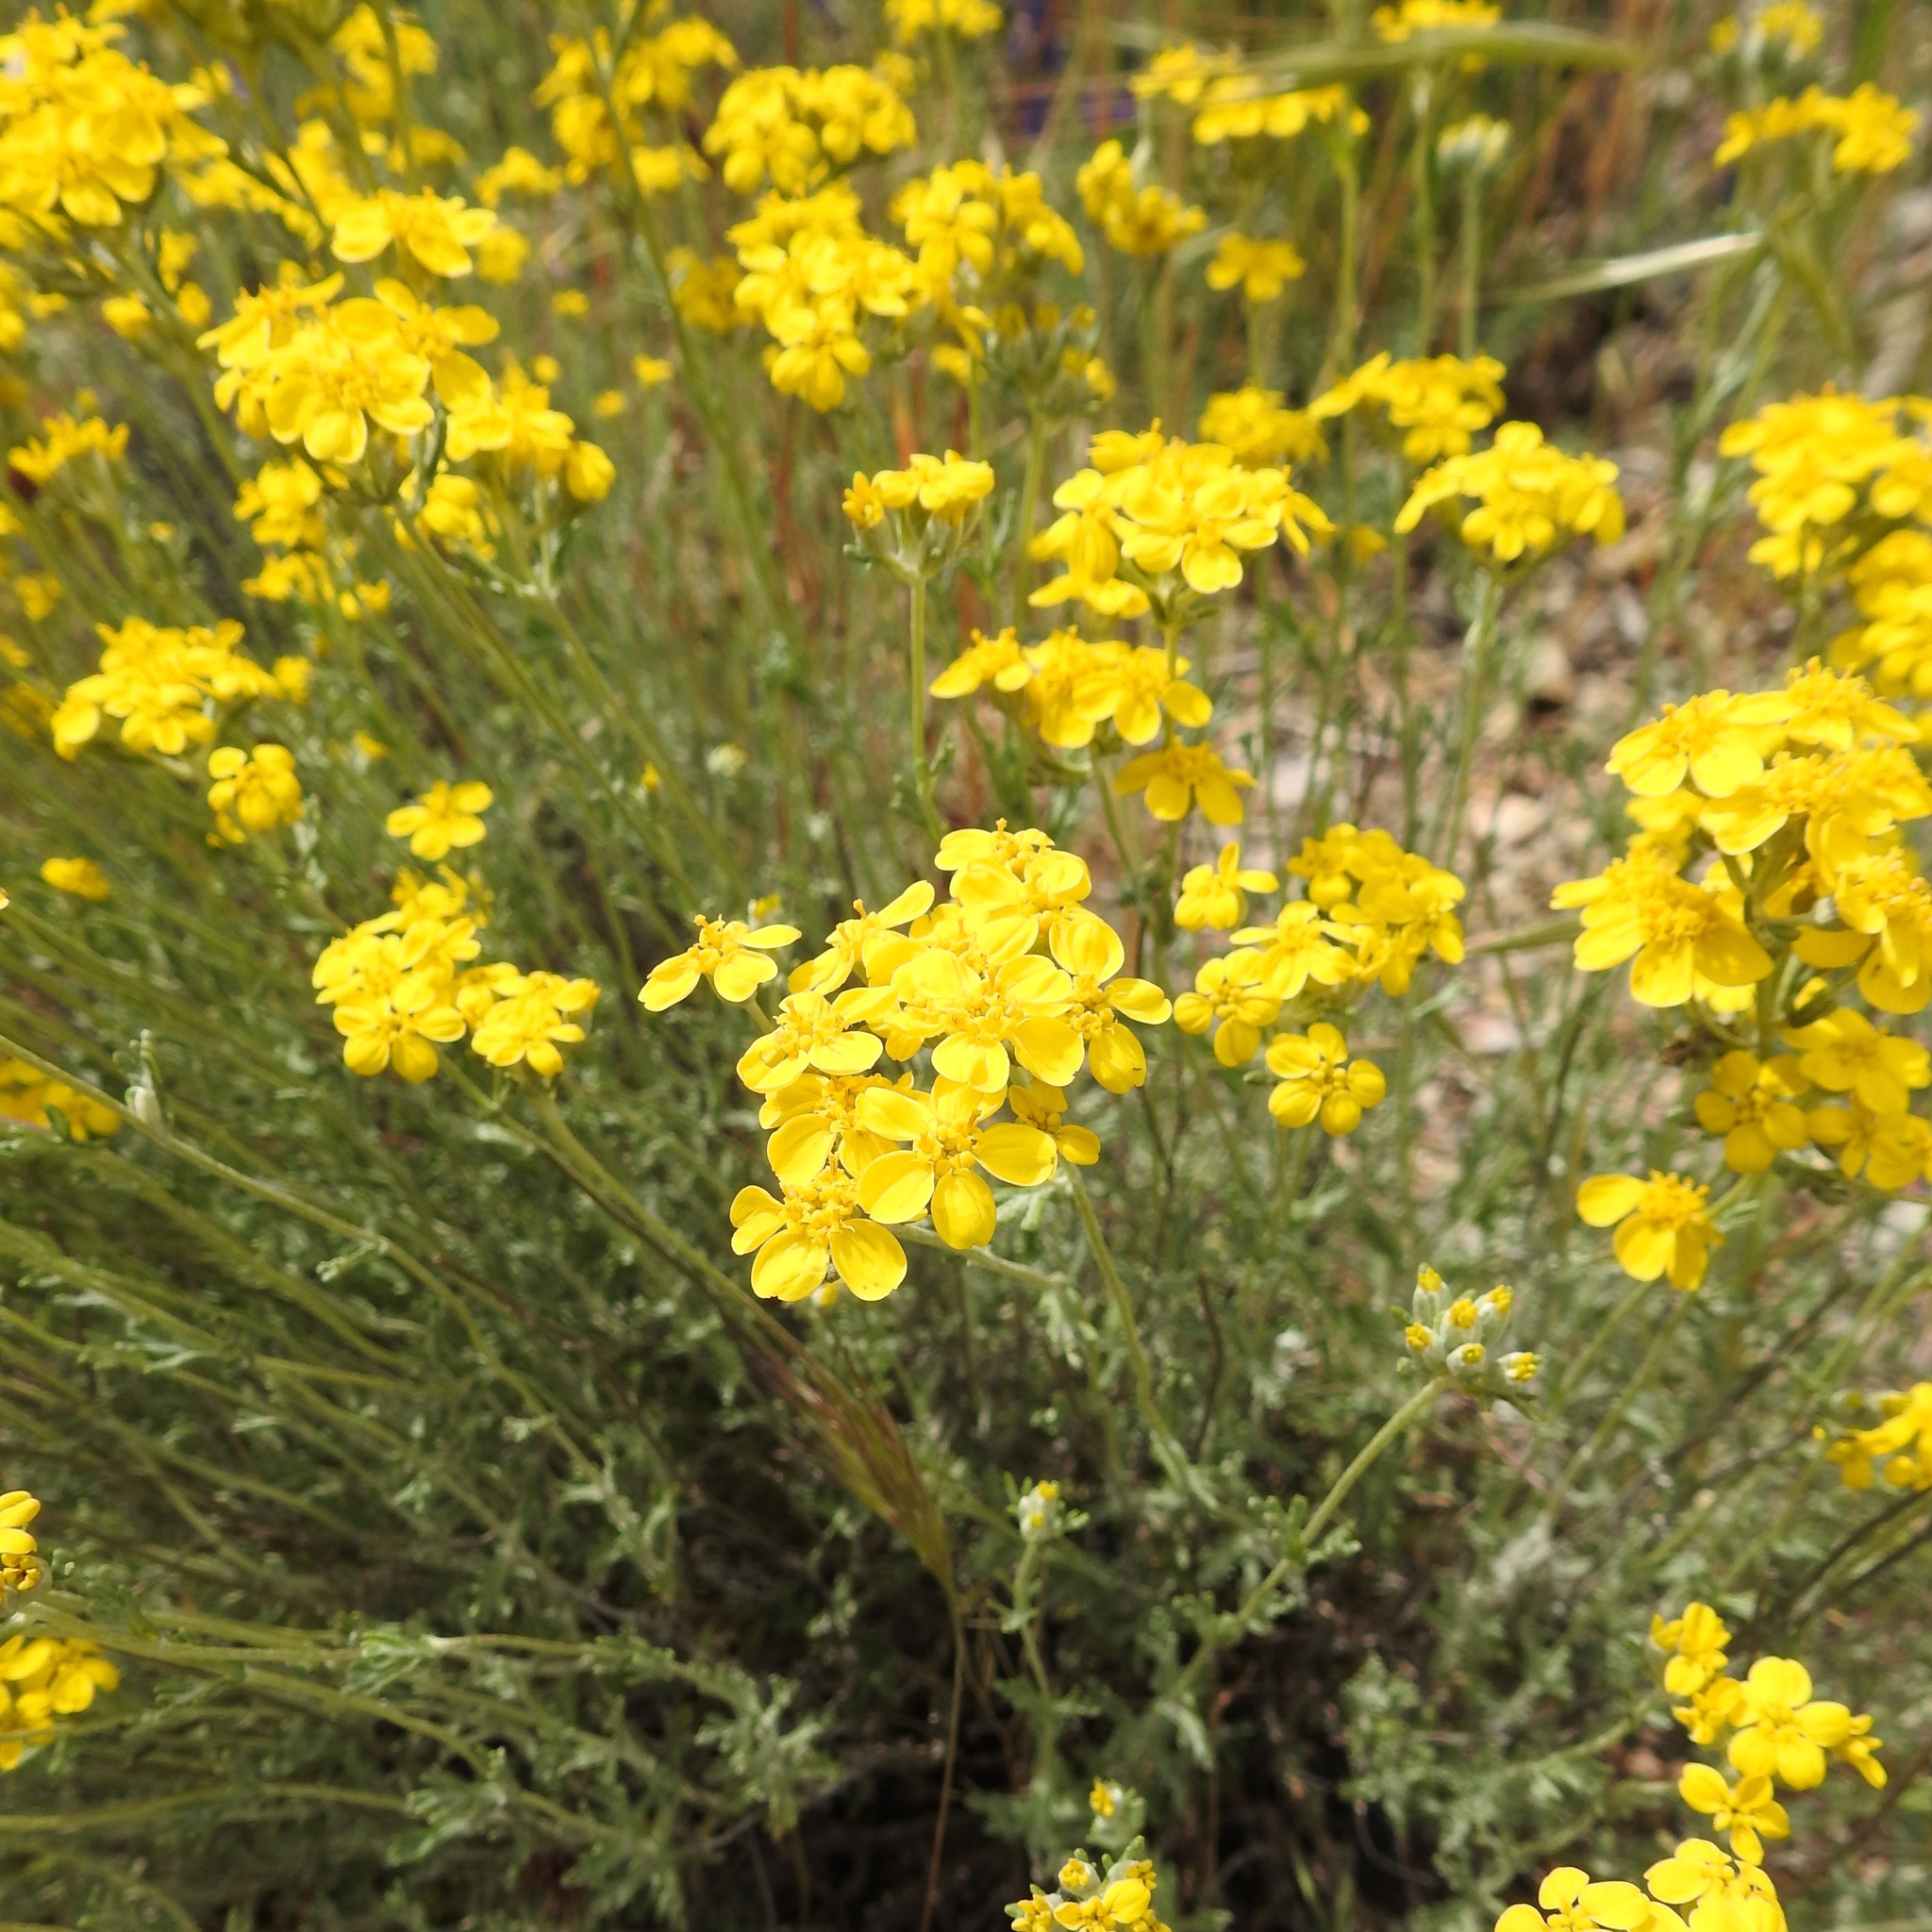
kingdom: Plantae
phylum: Tracheophyta
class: Magnoliopsida
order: Asterales
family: Asteraceae
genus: Eriophyllum
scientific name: Eriophyllum confertiflorum
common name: Golden-yarrow
